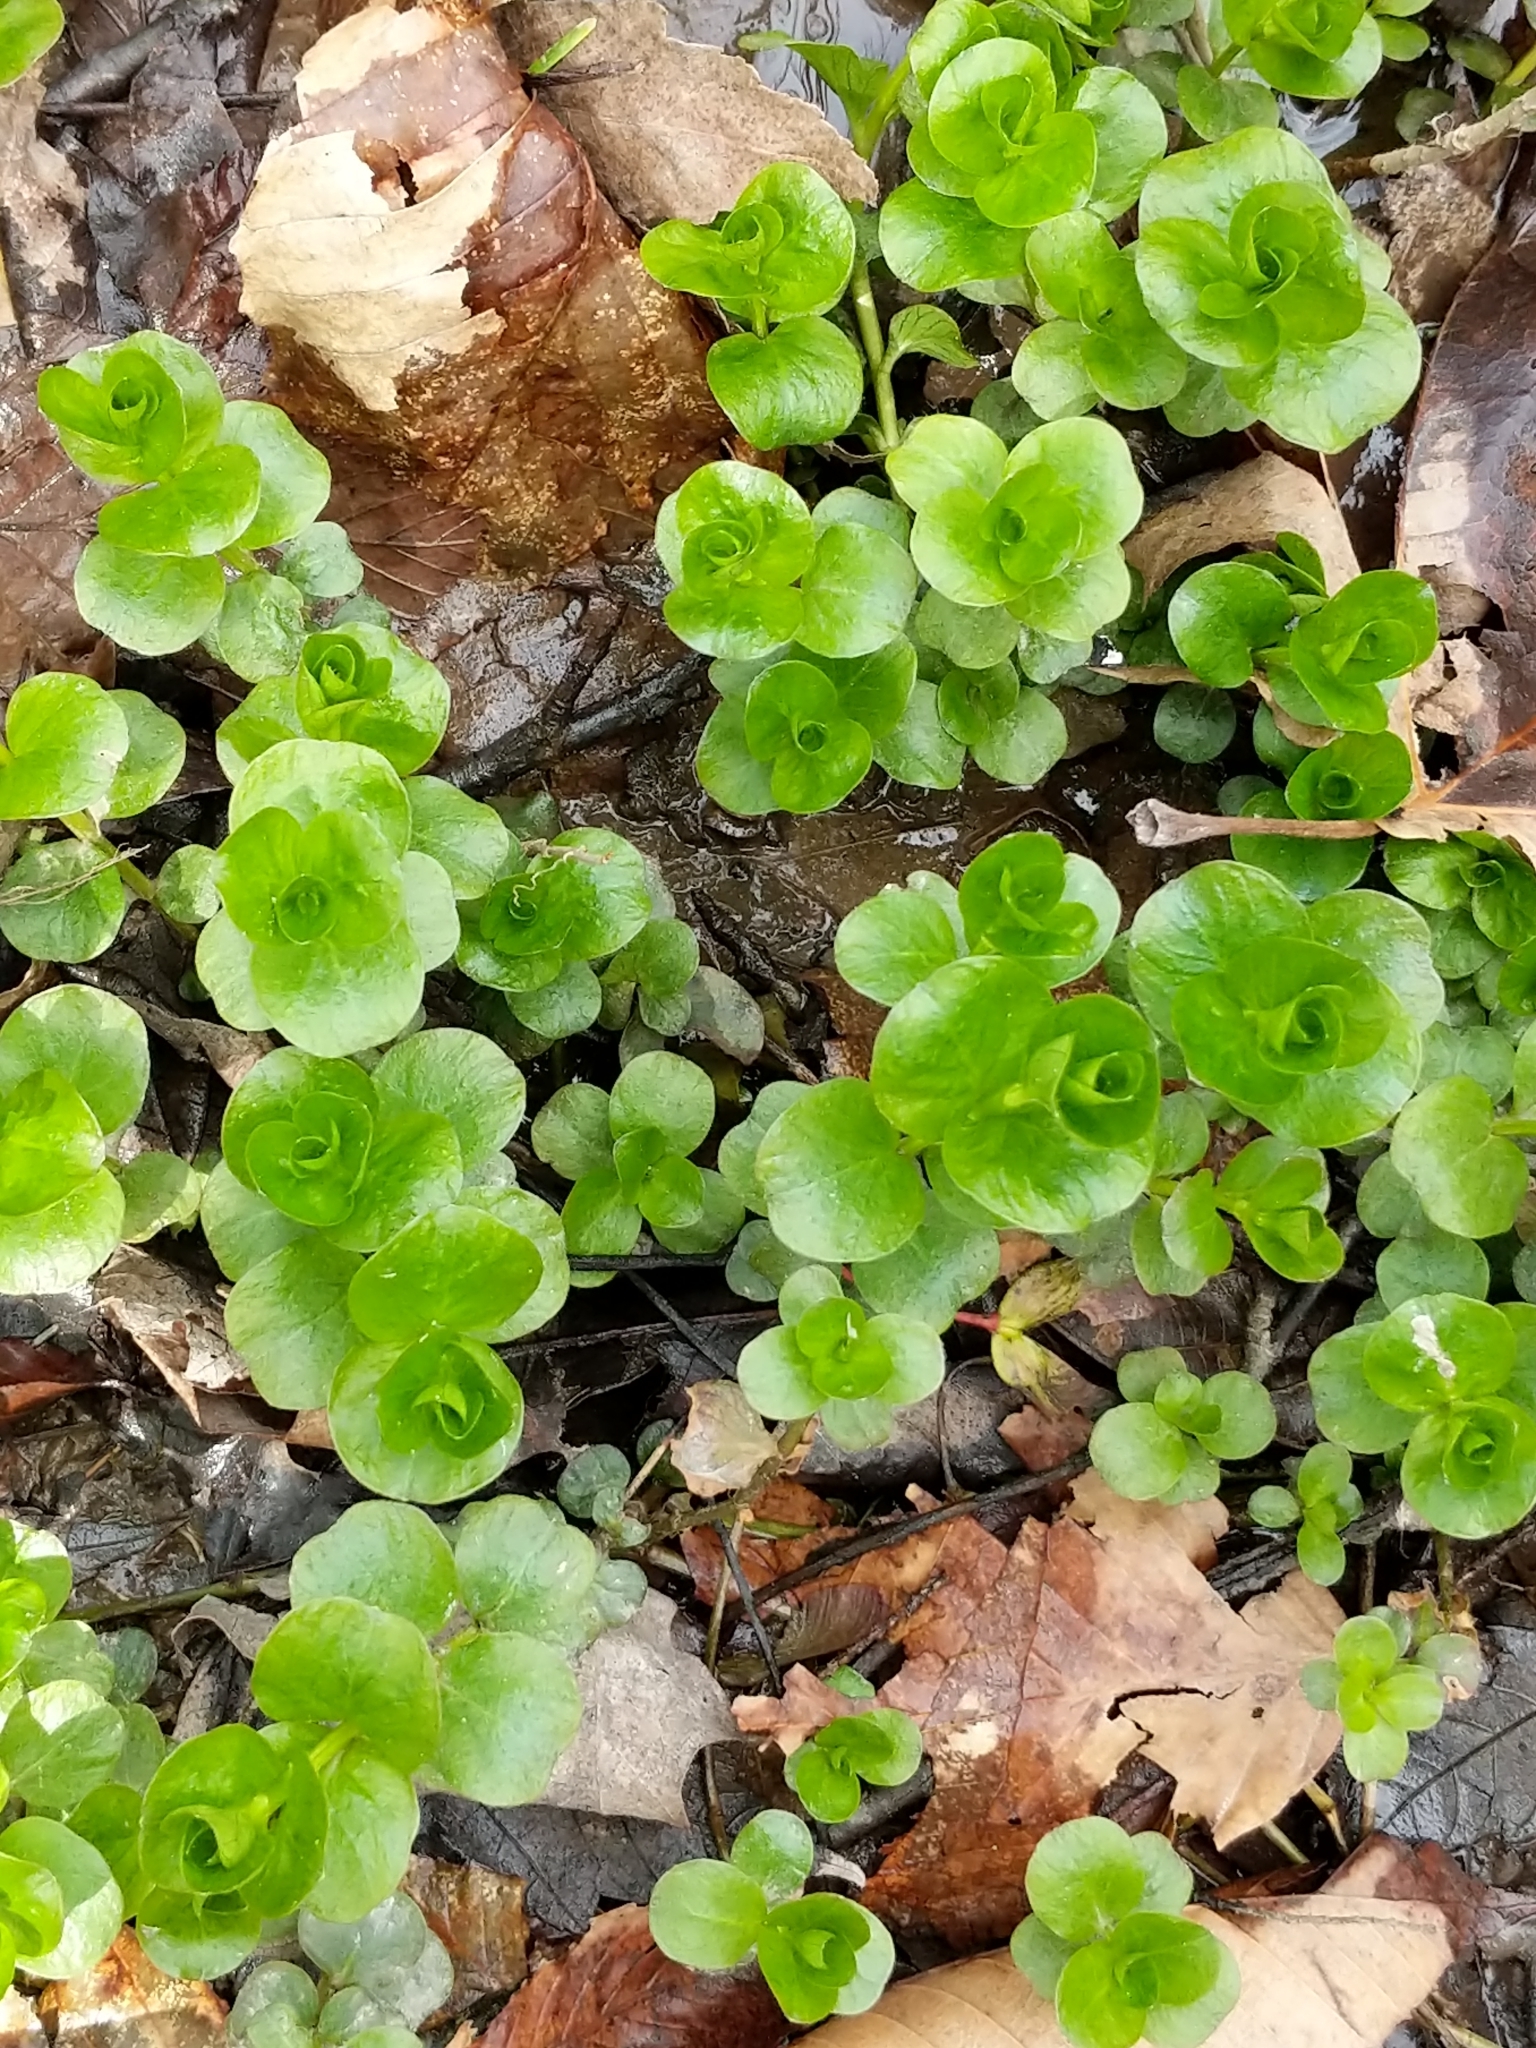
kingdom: Plantae
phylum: Tracheophyta
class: Magnoliopsida
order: Ericales
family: Primulaceae
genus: Lysimachia
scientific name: Lysimachia nummularia
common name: Moneywort
